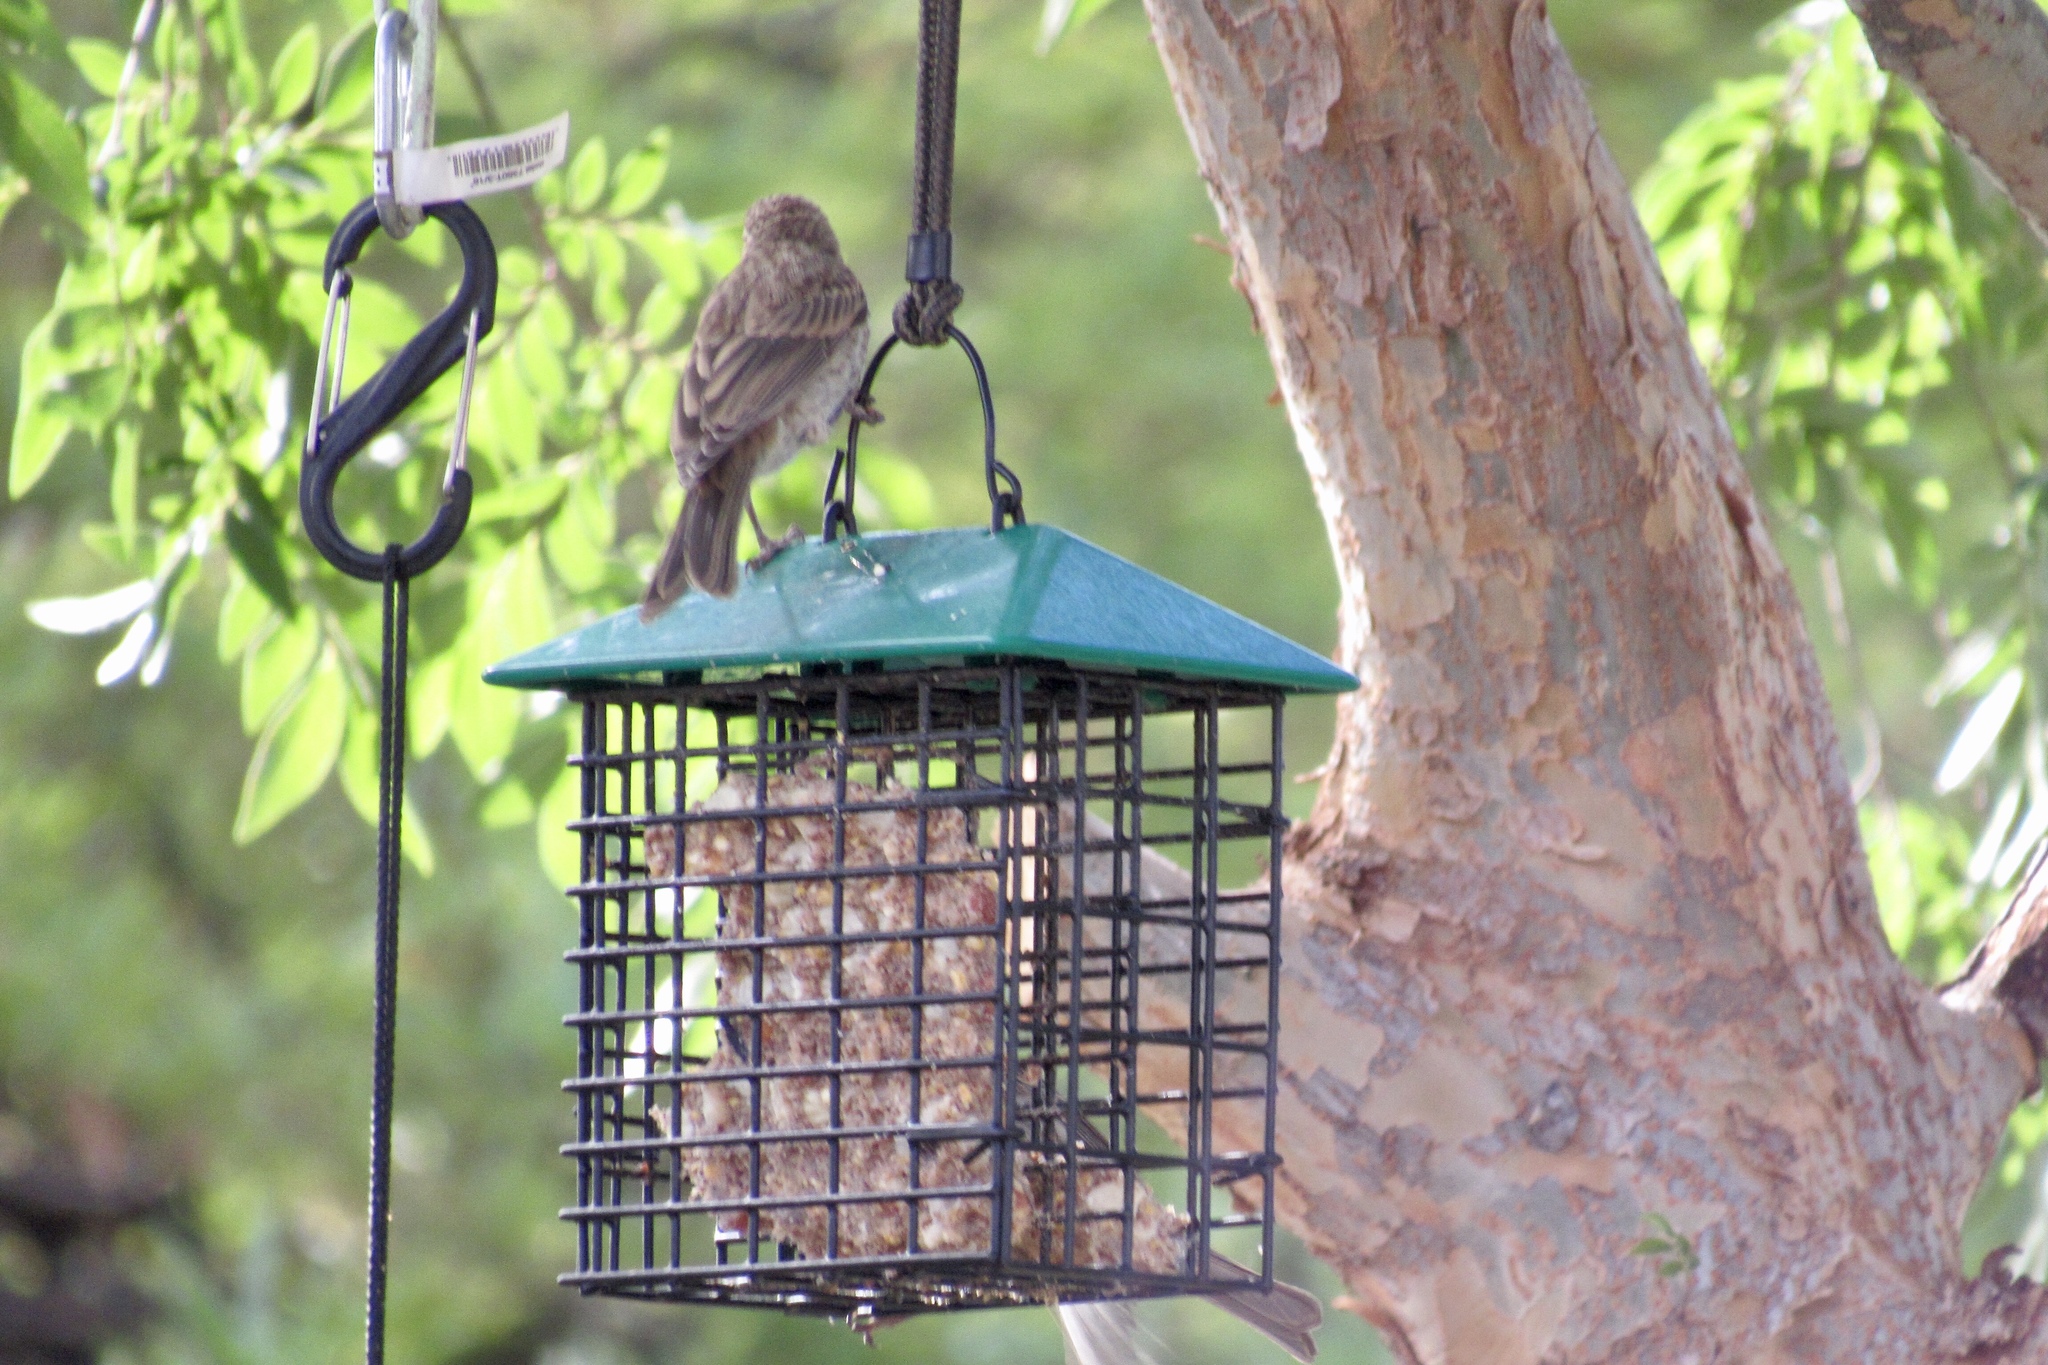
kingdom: Animalia
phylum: Chordata
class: Aves
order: Passeriformes
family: Fringillidae
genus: Haemorhous
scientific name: Haemorhous mexicanus
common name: House finch
